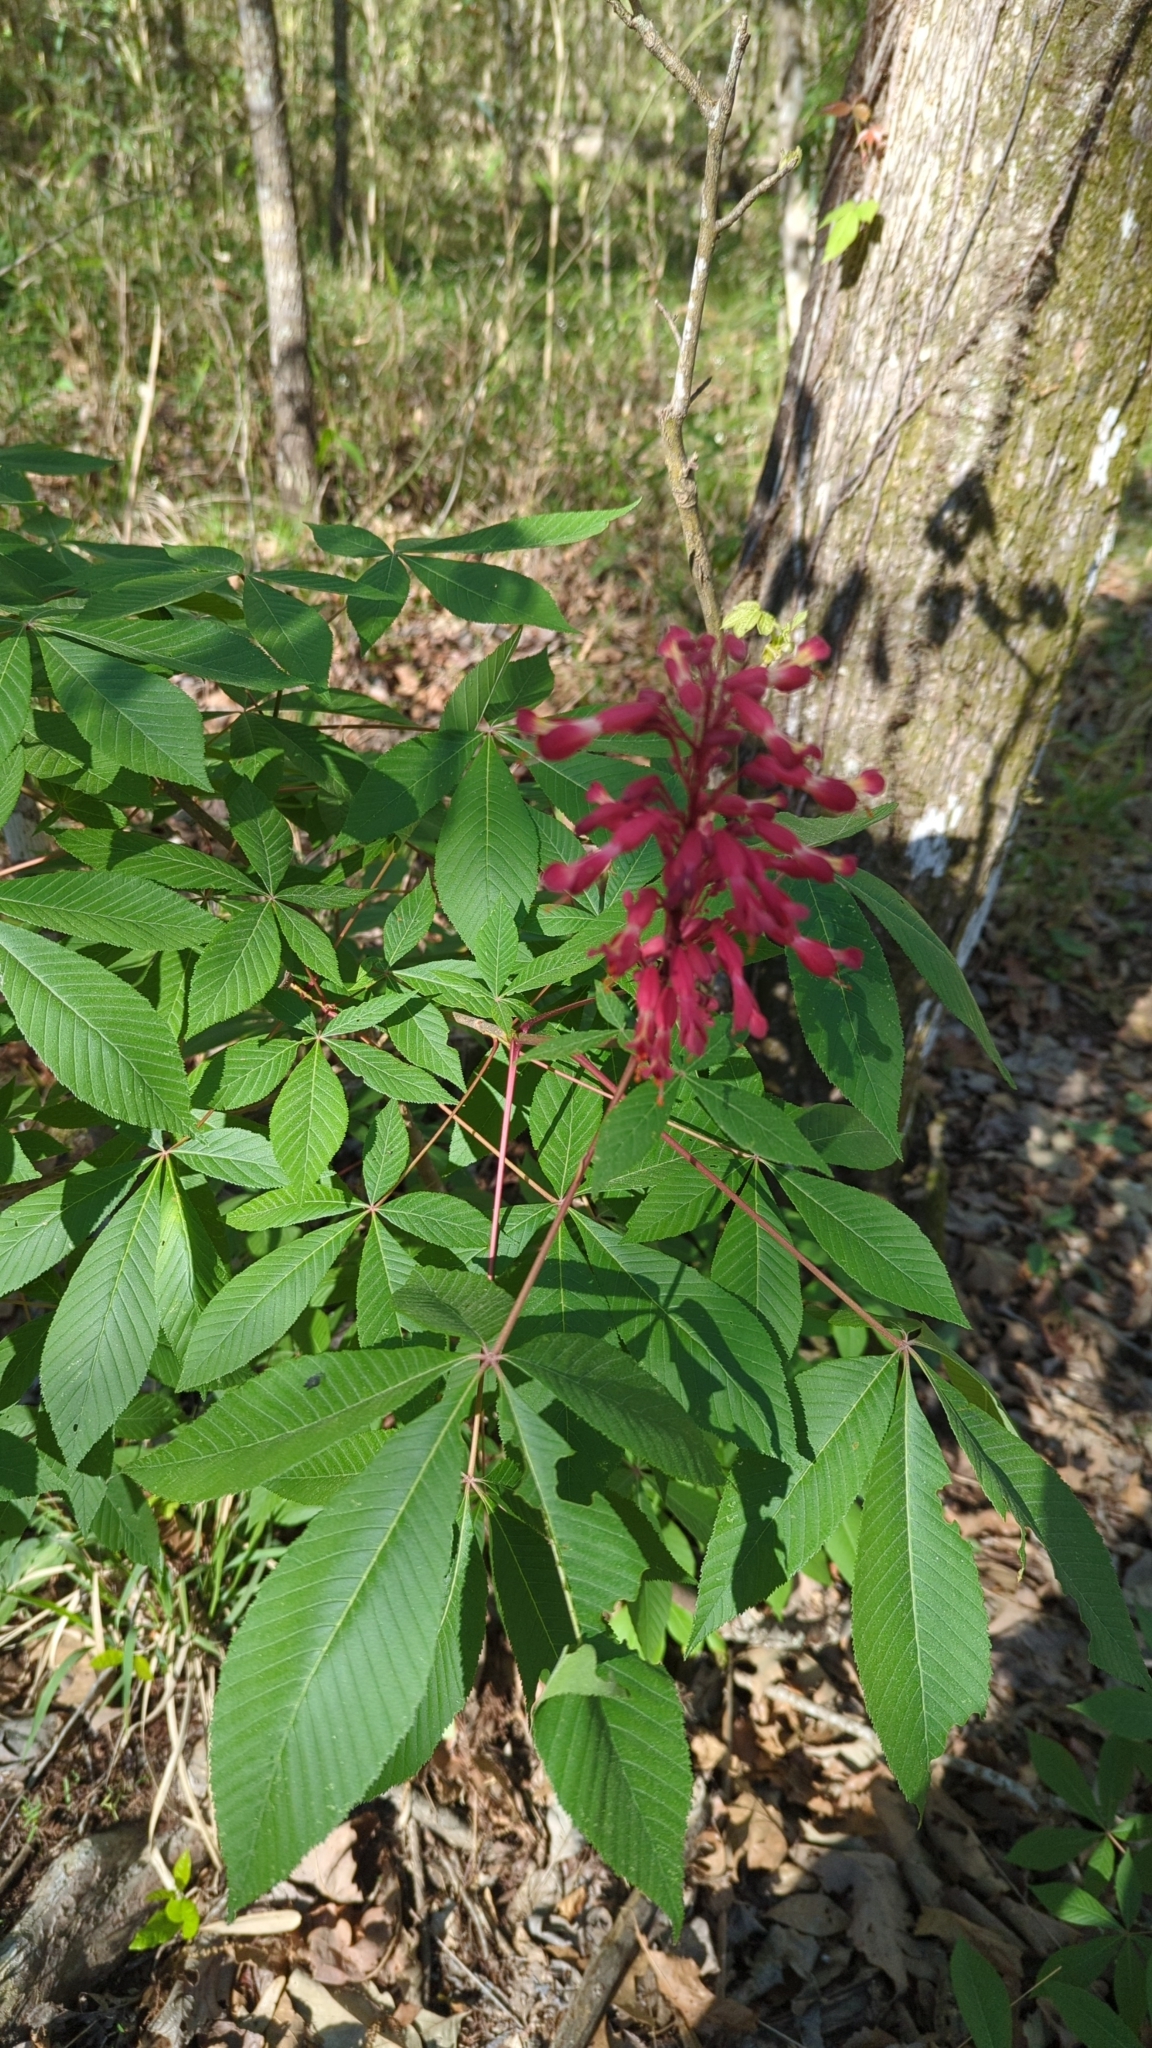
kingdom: Plantae
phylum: Tracheophyta
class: Magnoliopsida
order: Sapindales
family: Sapindaceae
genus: Aesculus
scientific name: Aesculus pavia
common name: Red buckeye
